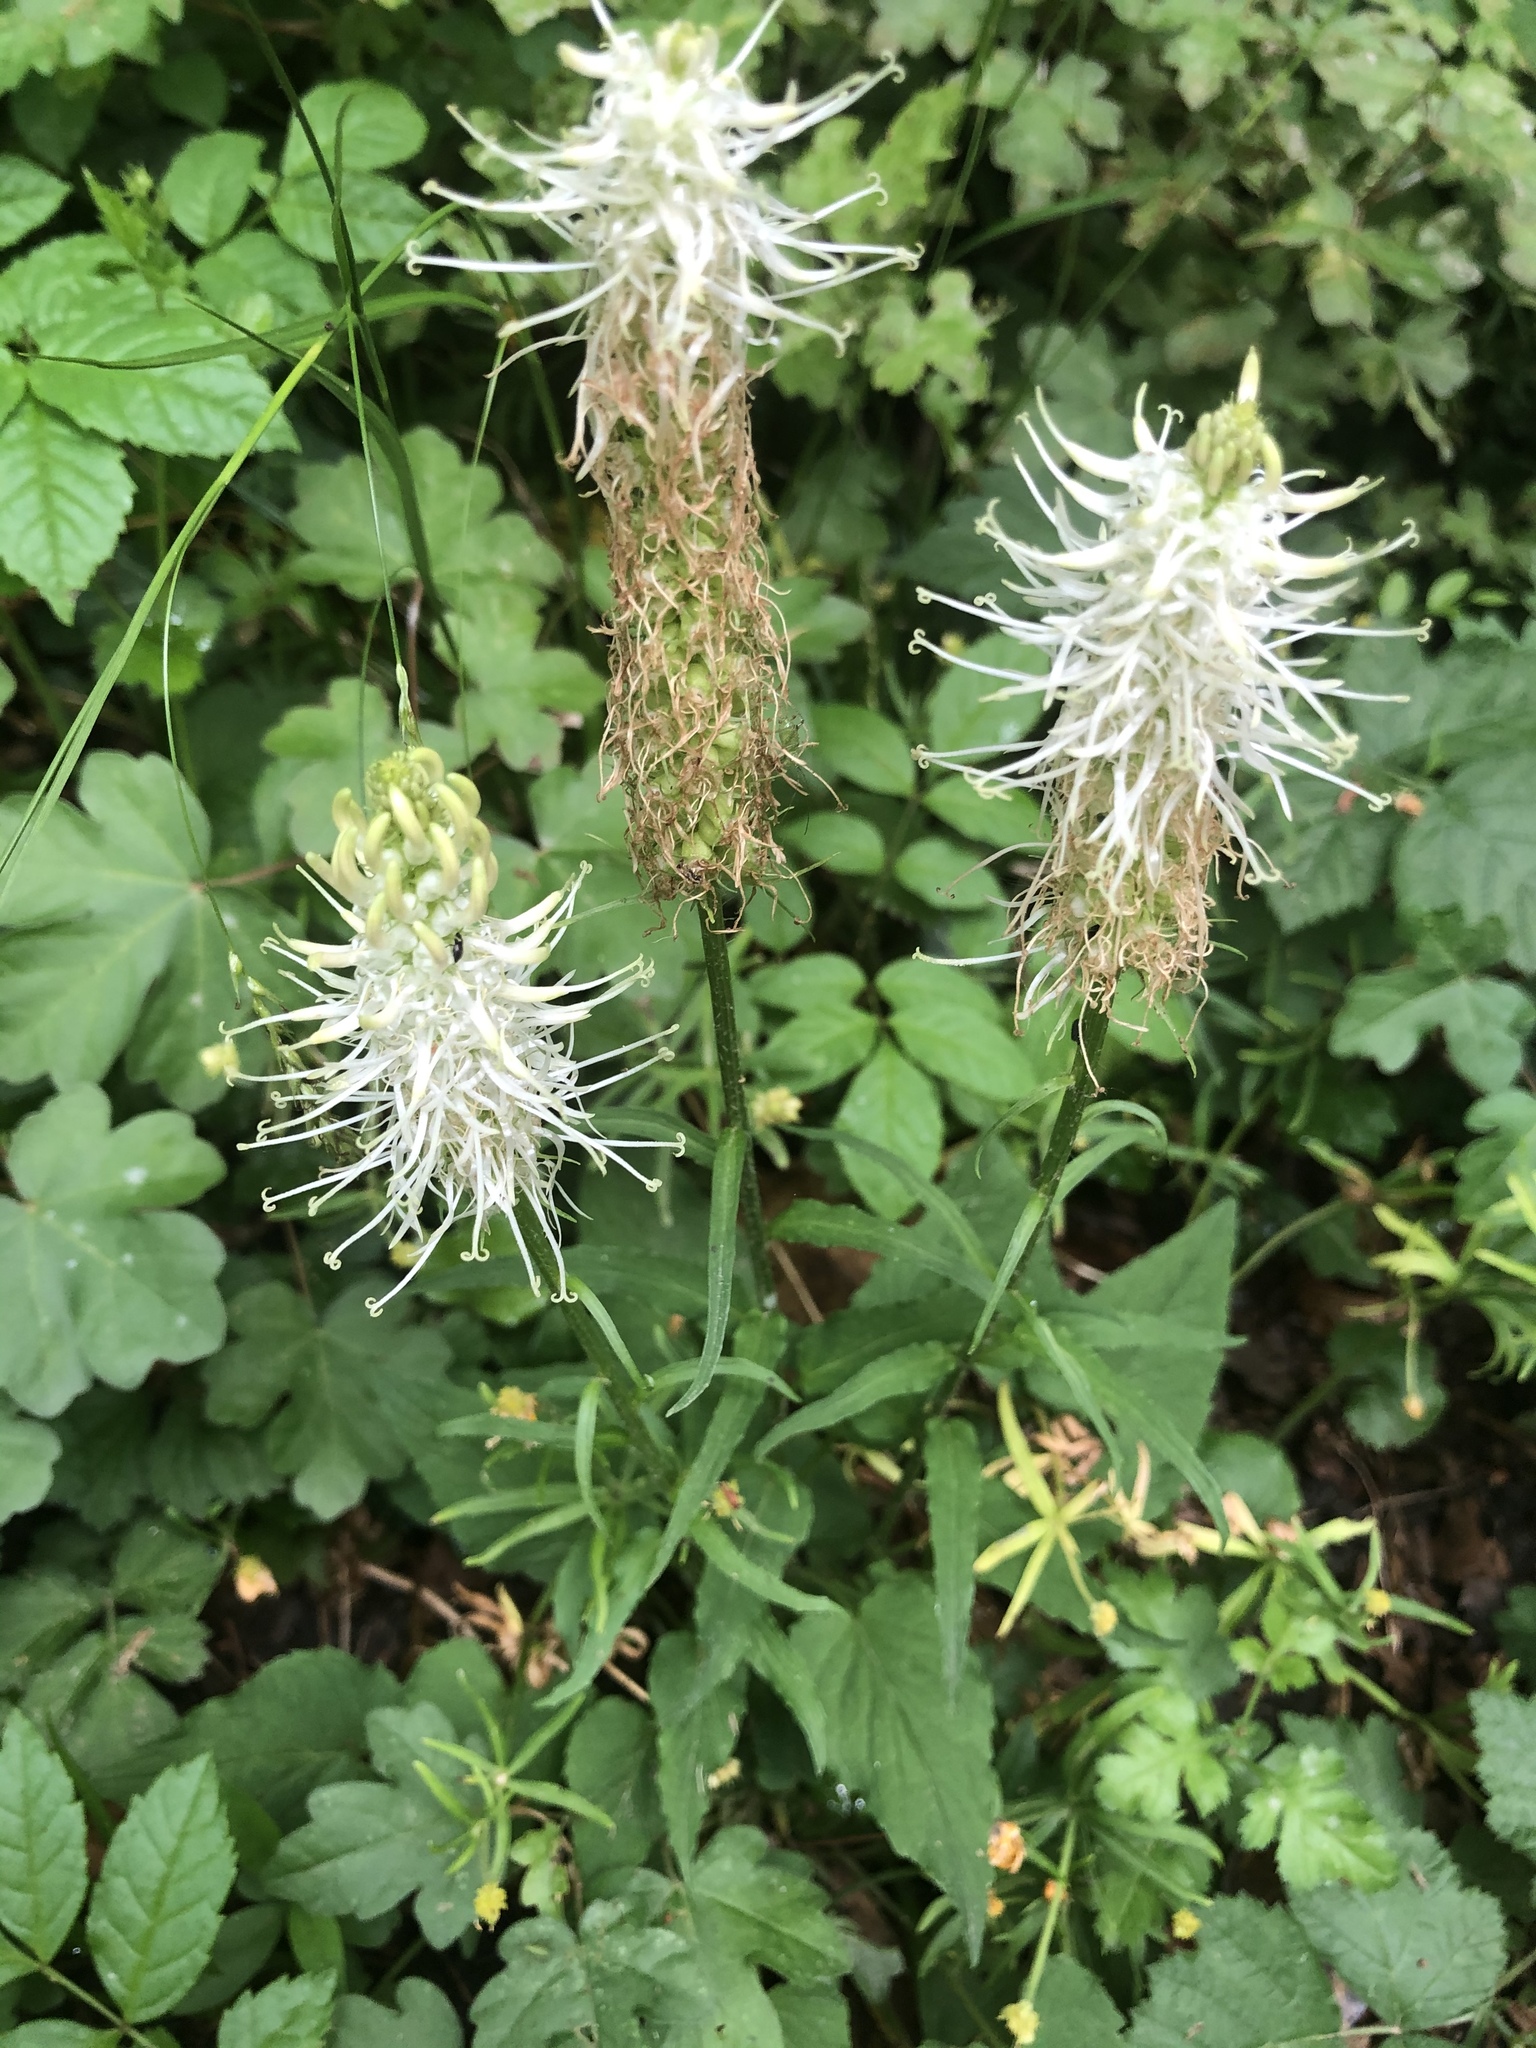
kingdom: Plantae
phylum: Tracheophyta
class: Magnoliopsida
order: Asterales
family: Campanulaceae
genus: Phyteuma
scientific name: Phyteuma spicatum
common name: Spiked rampion
